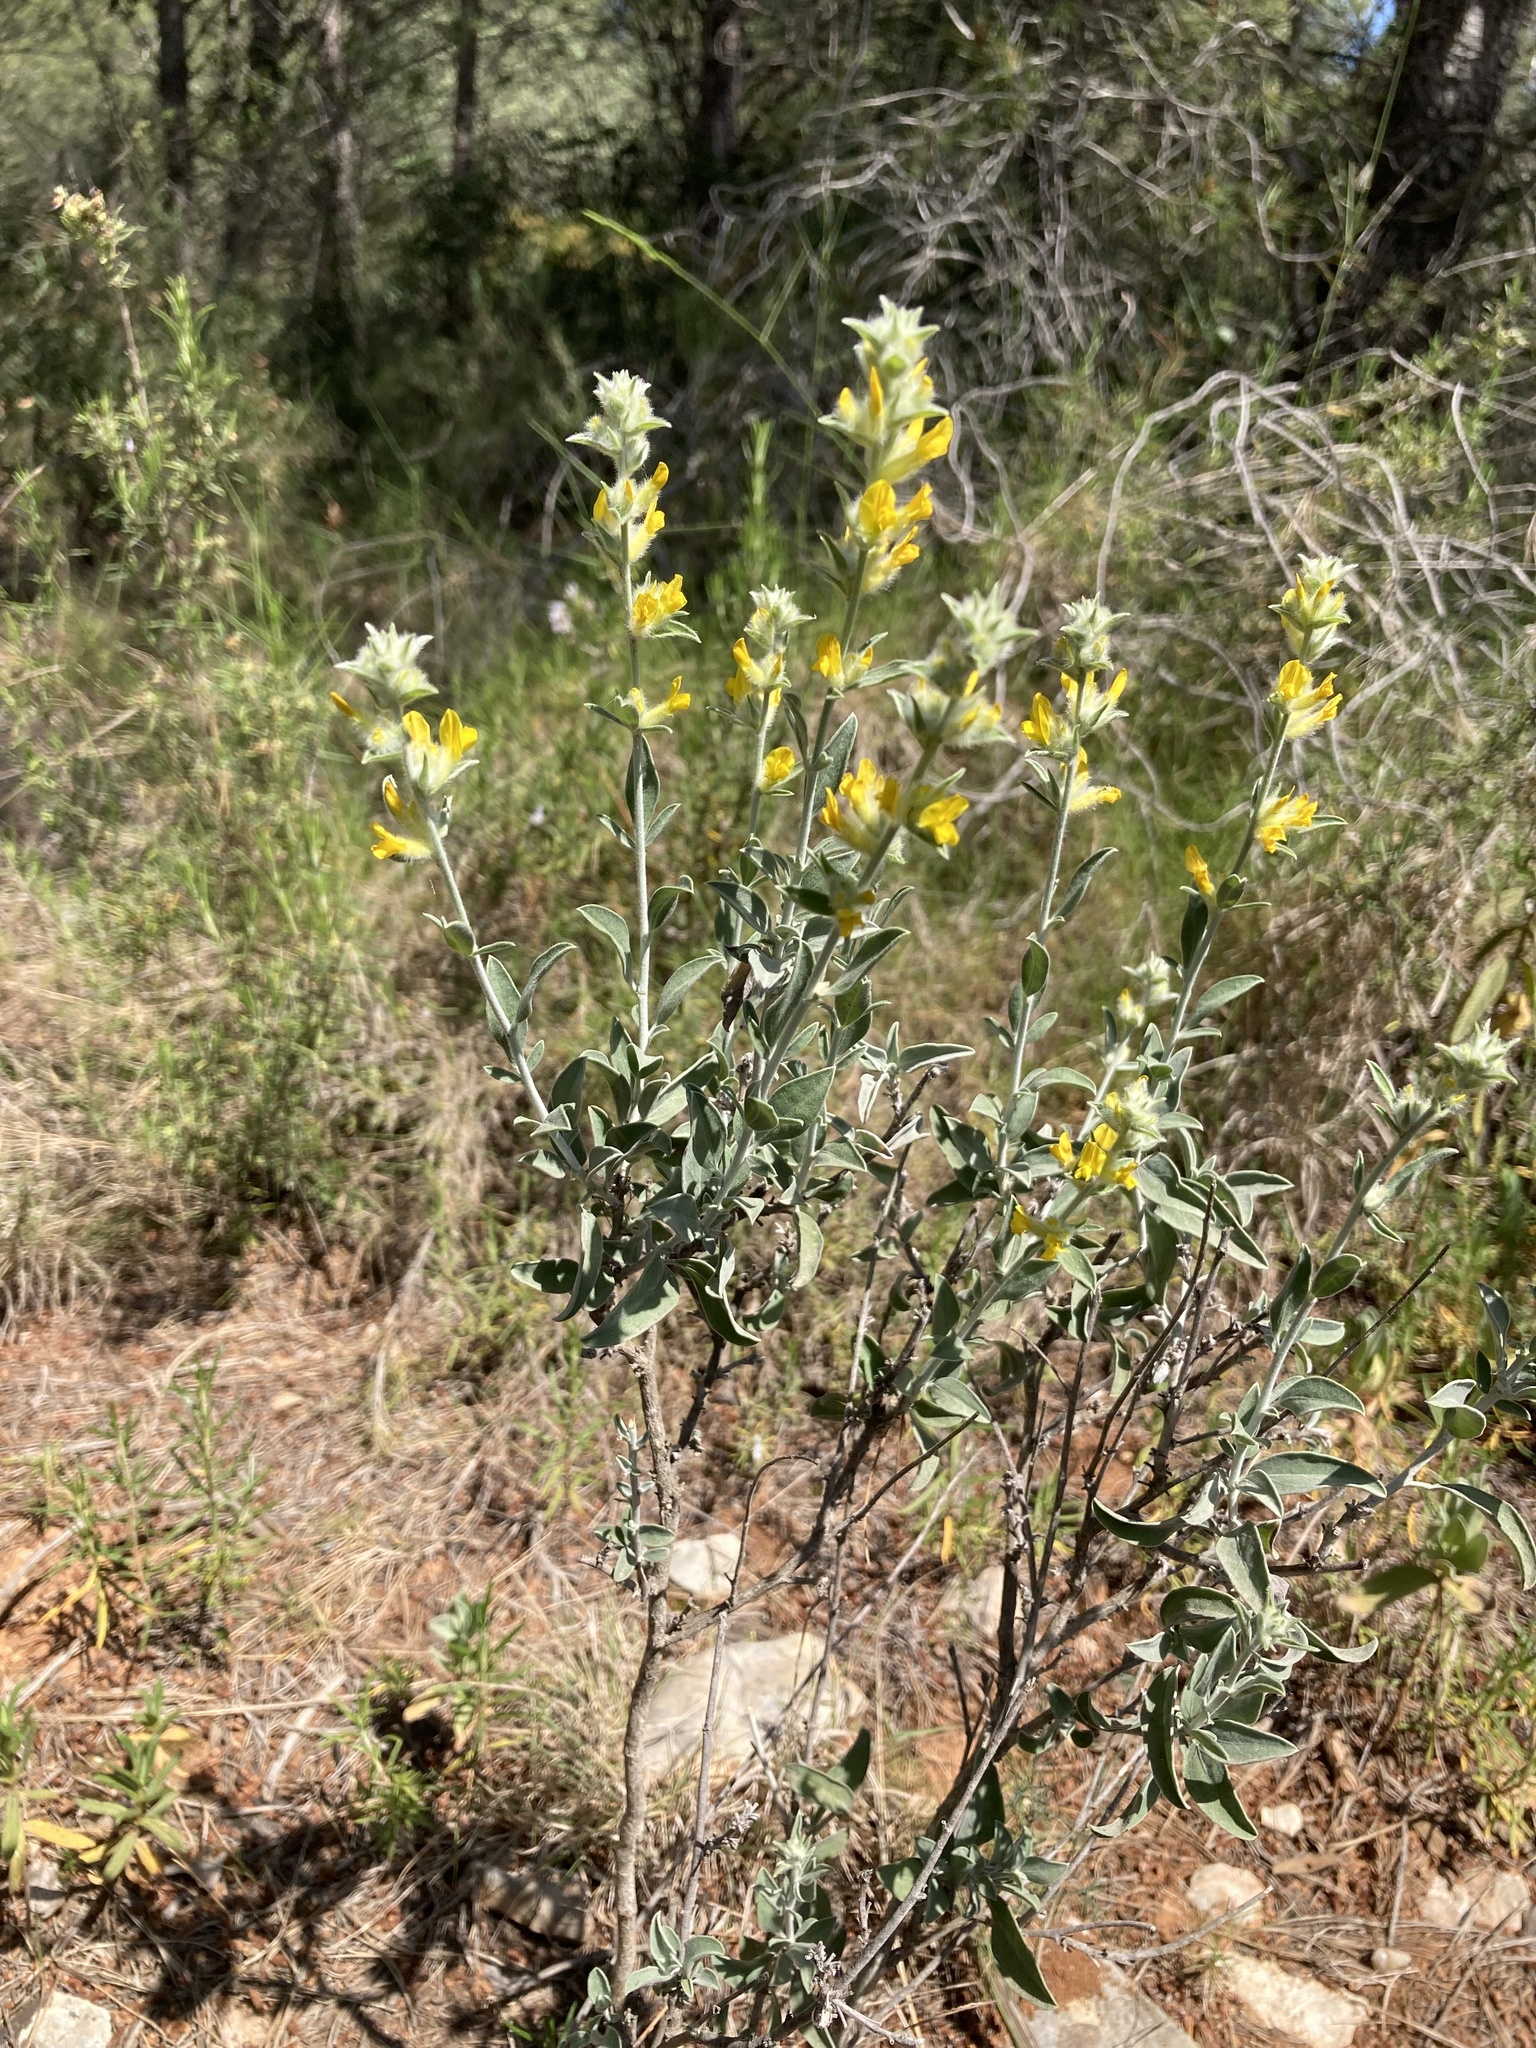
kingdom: Plantae
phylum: Tracheophyta
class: Magnoliopsida
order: Fabales
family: Fabaceae
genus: Anthyllis
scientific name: Anthyllis cytisoides
